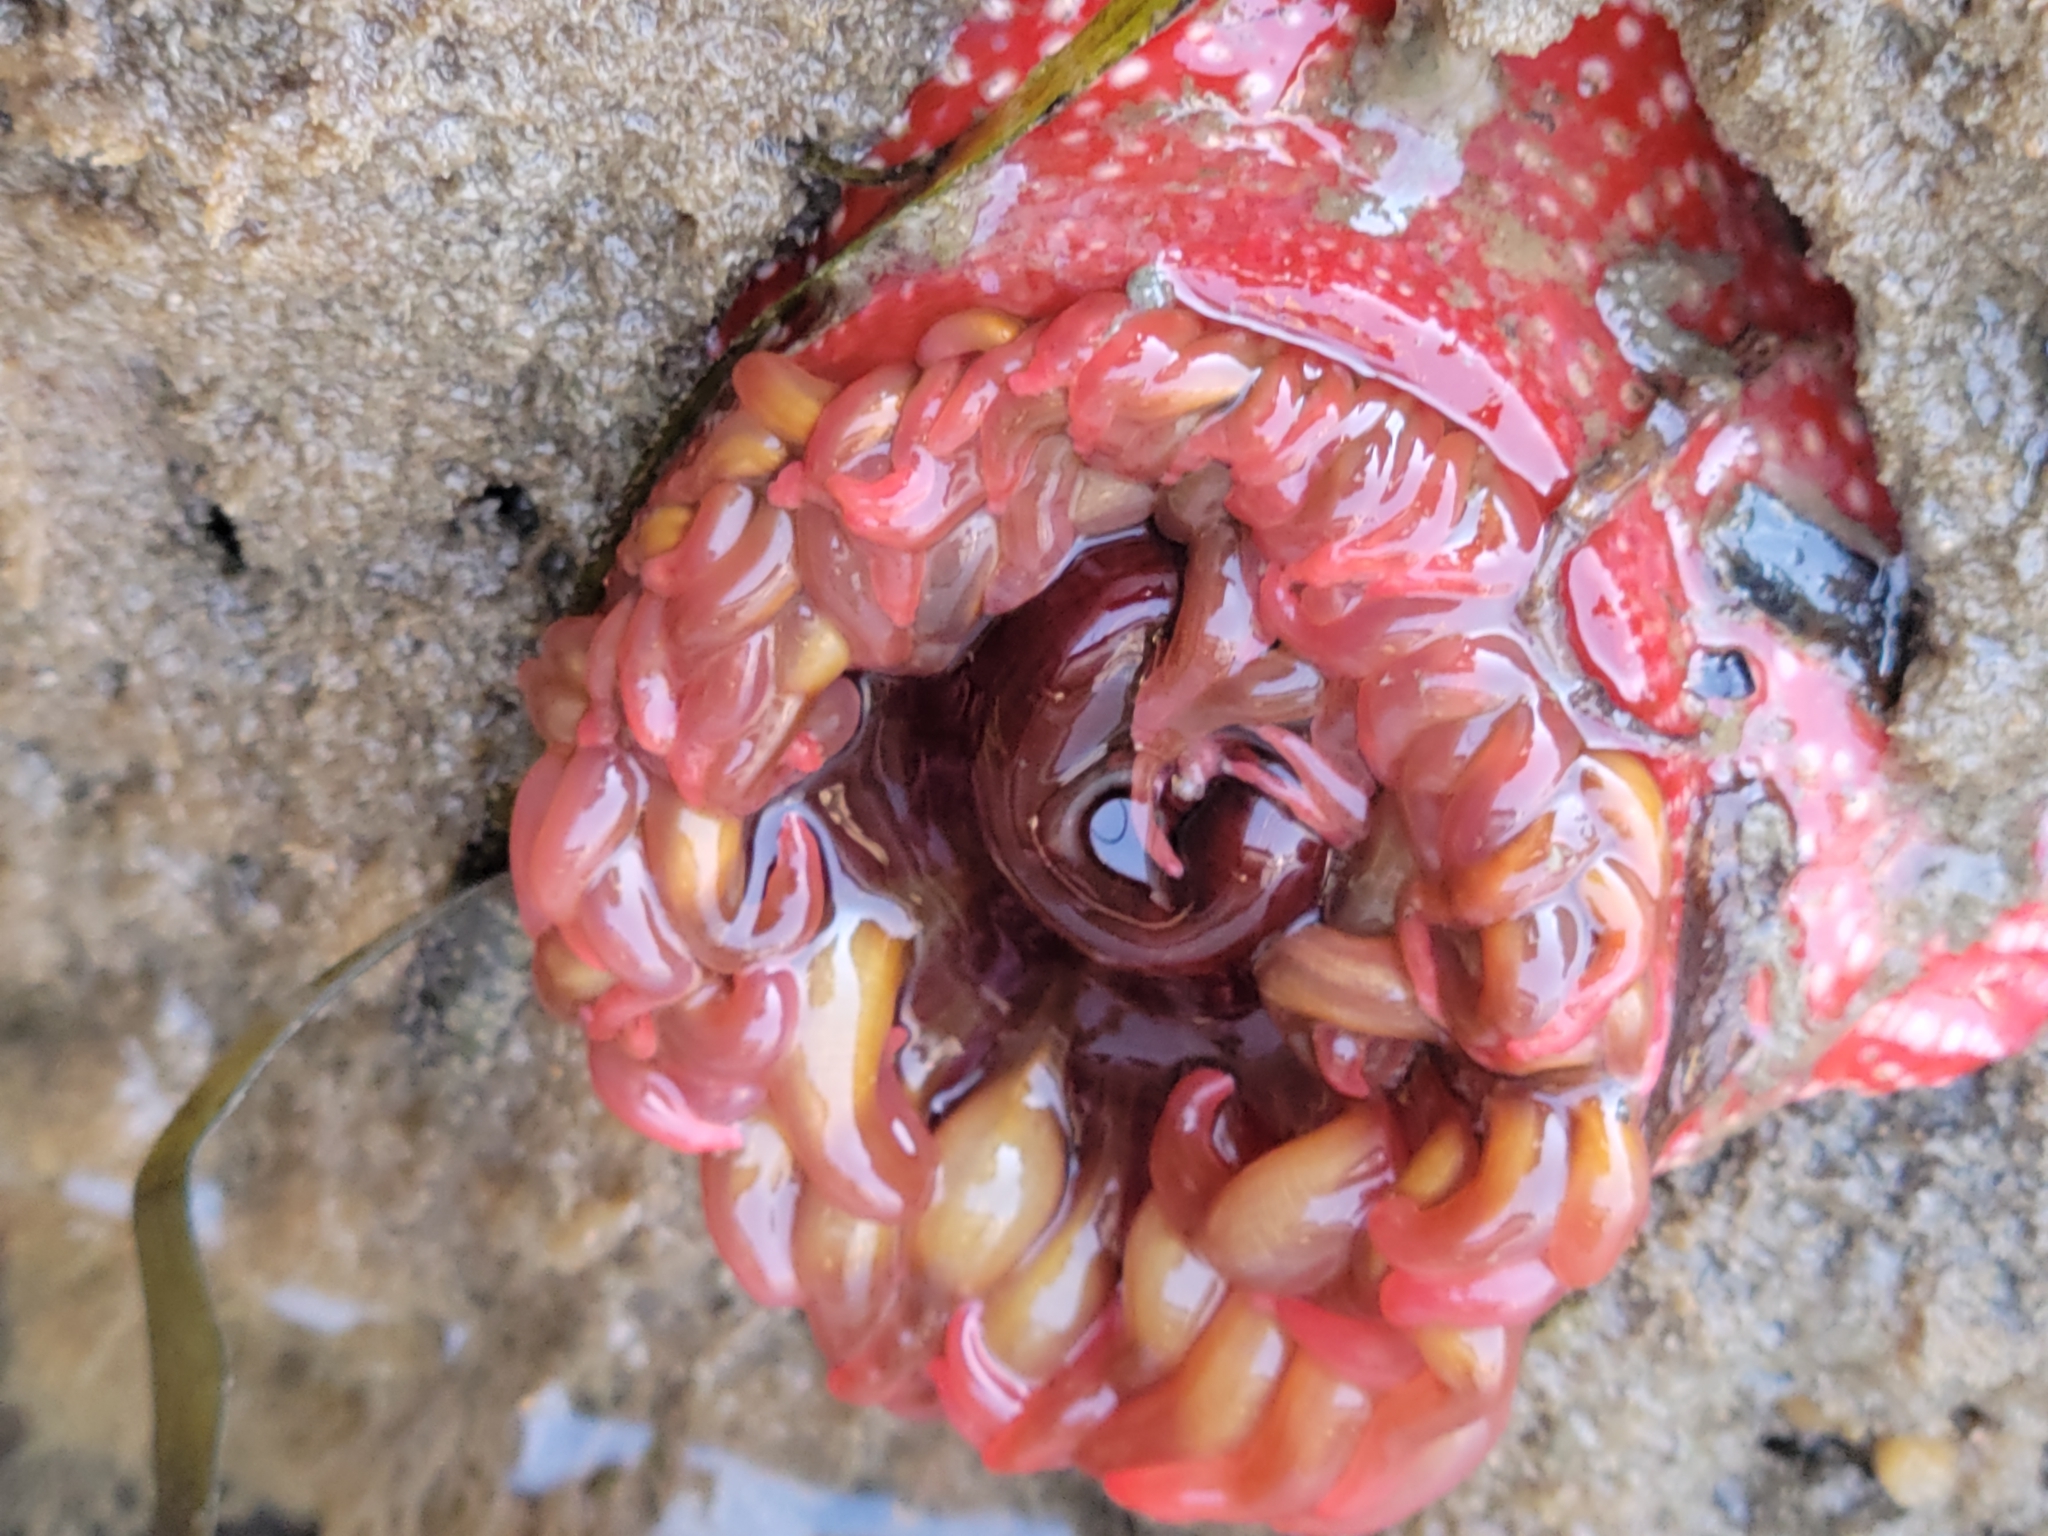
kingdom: Animalia
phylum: Cnidaria
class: Anthozoa
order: Actiniaria
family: Actiniidae
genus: Cribrinopsis
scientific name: Cribrinopsis albopunctata
